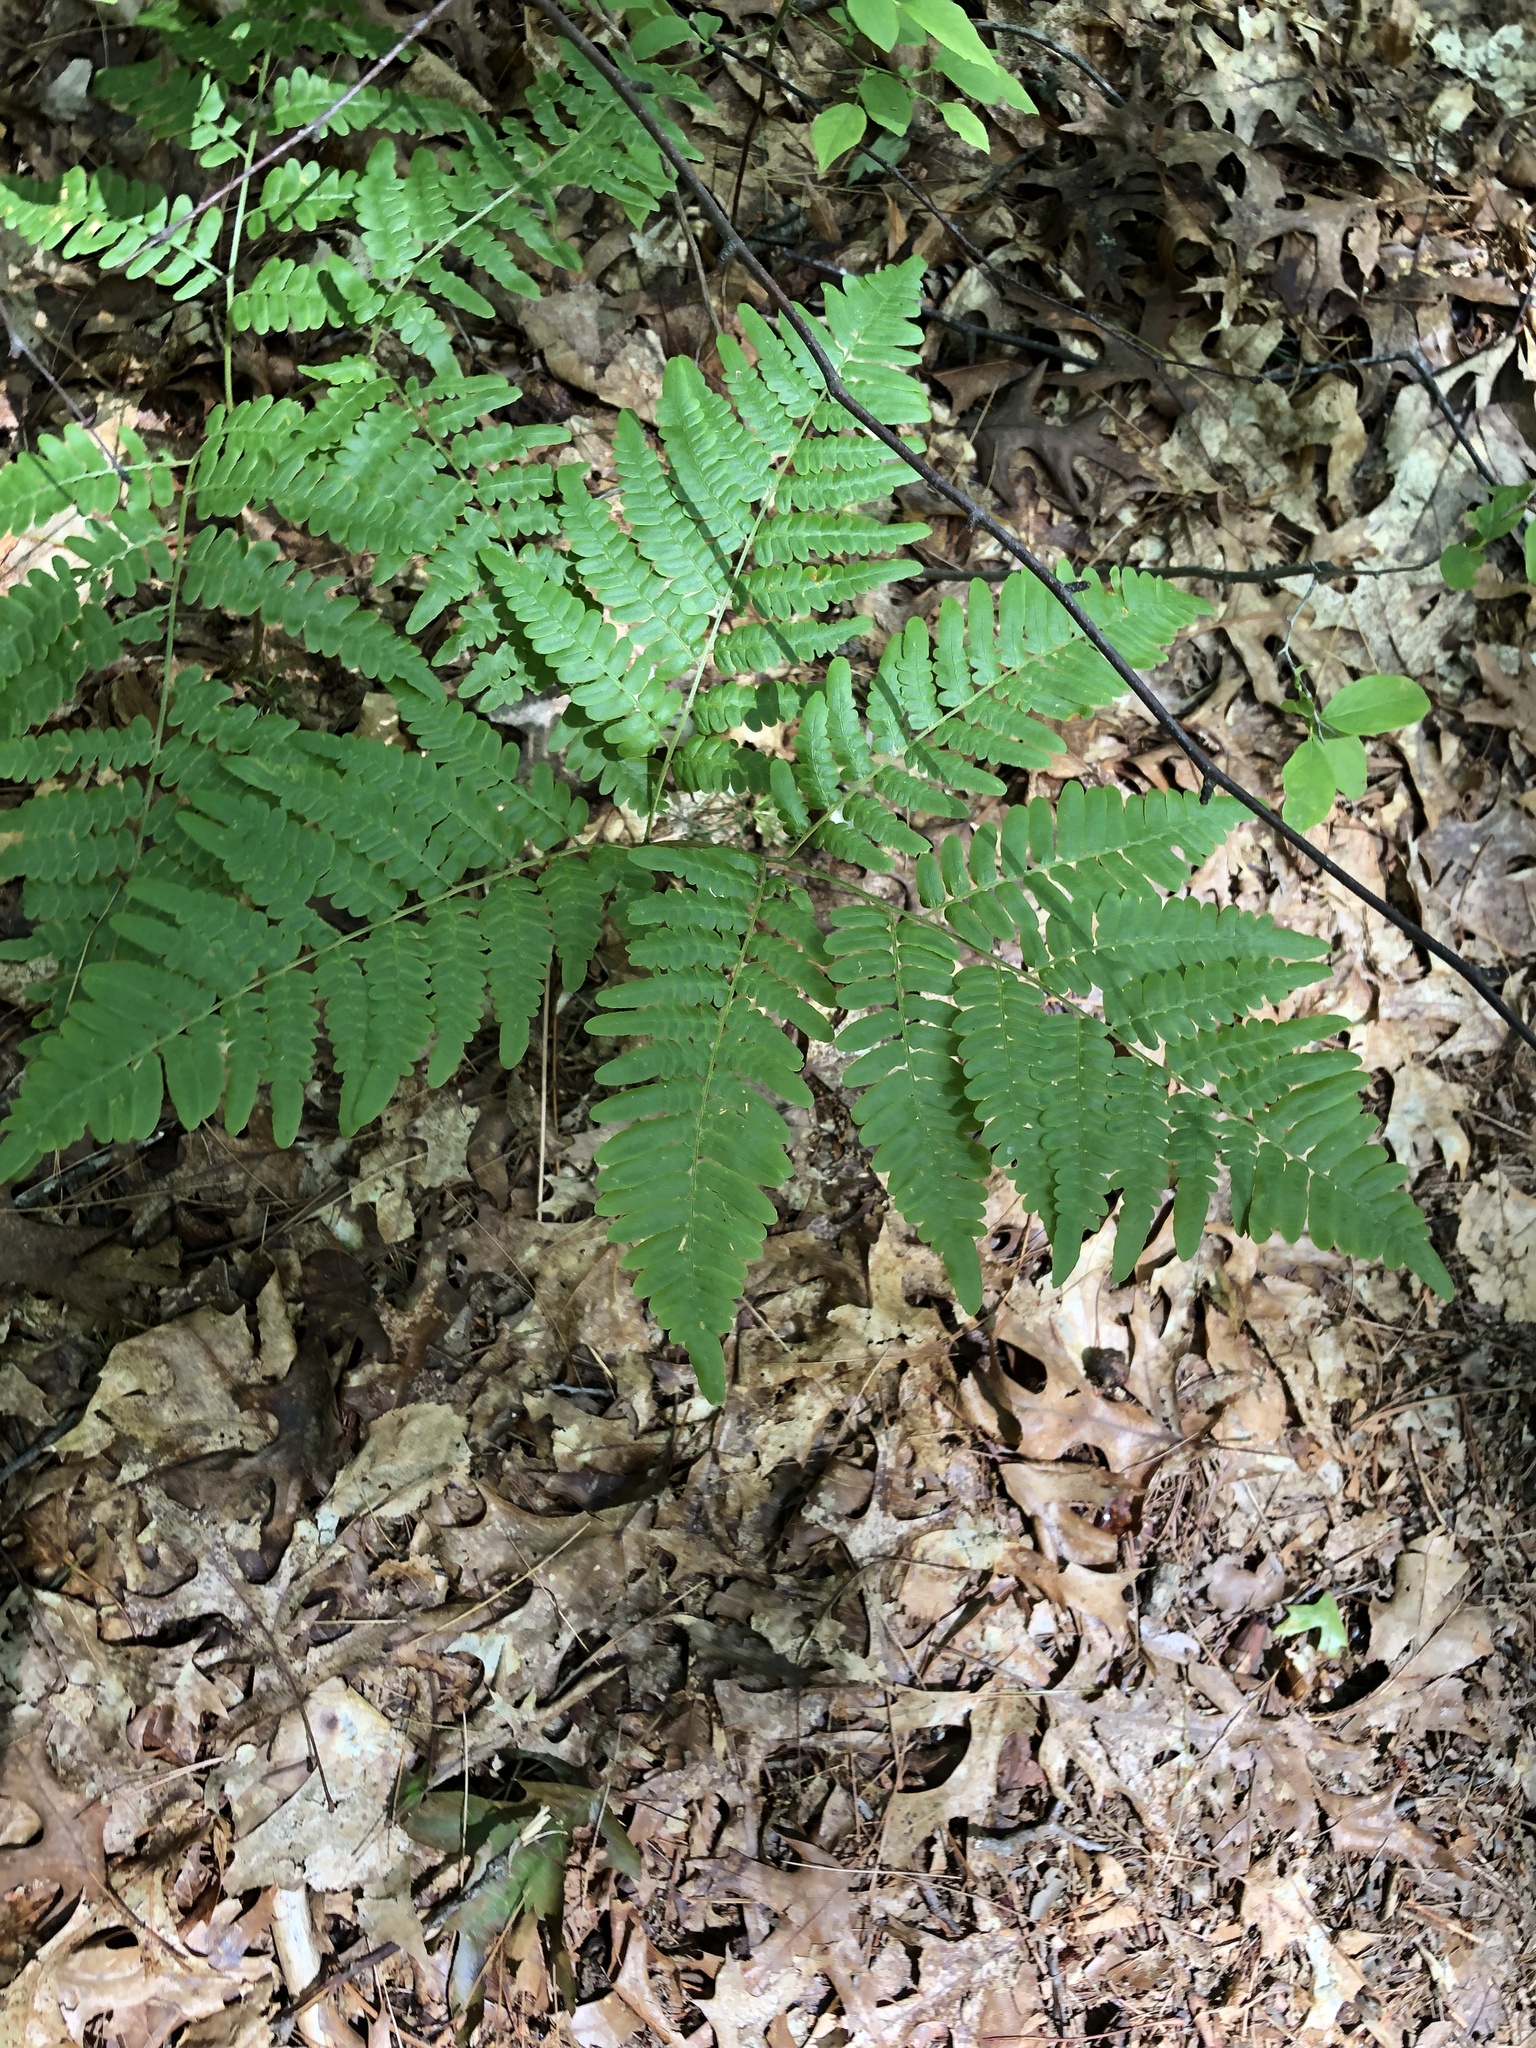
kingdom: Plantae
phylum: Tracheophyta
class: Polypodiopsida
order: Polypodiales
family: Dennstaedtiaceae
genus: Pteridium
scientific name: Pteridium aquilinum
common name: Bracken
